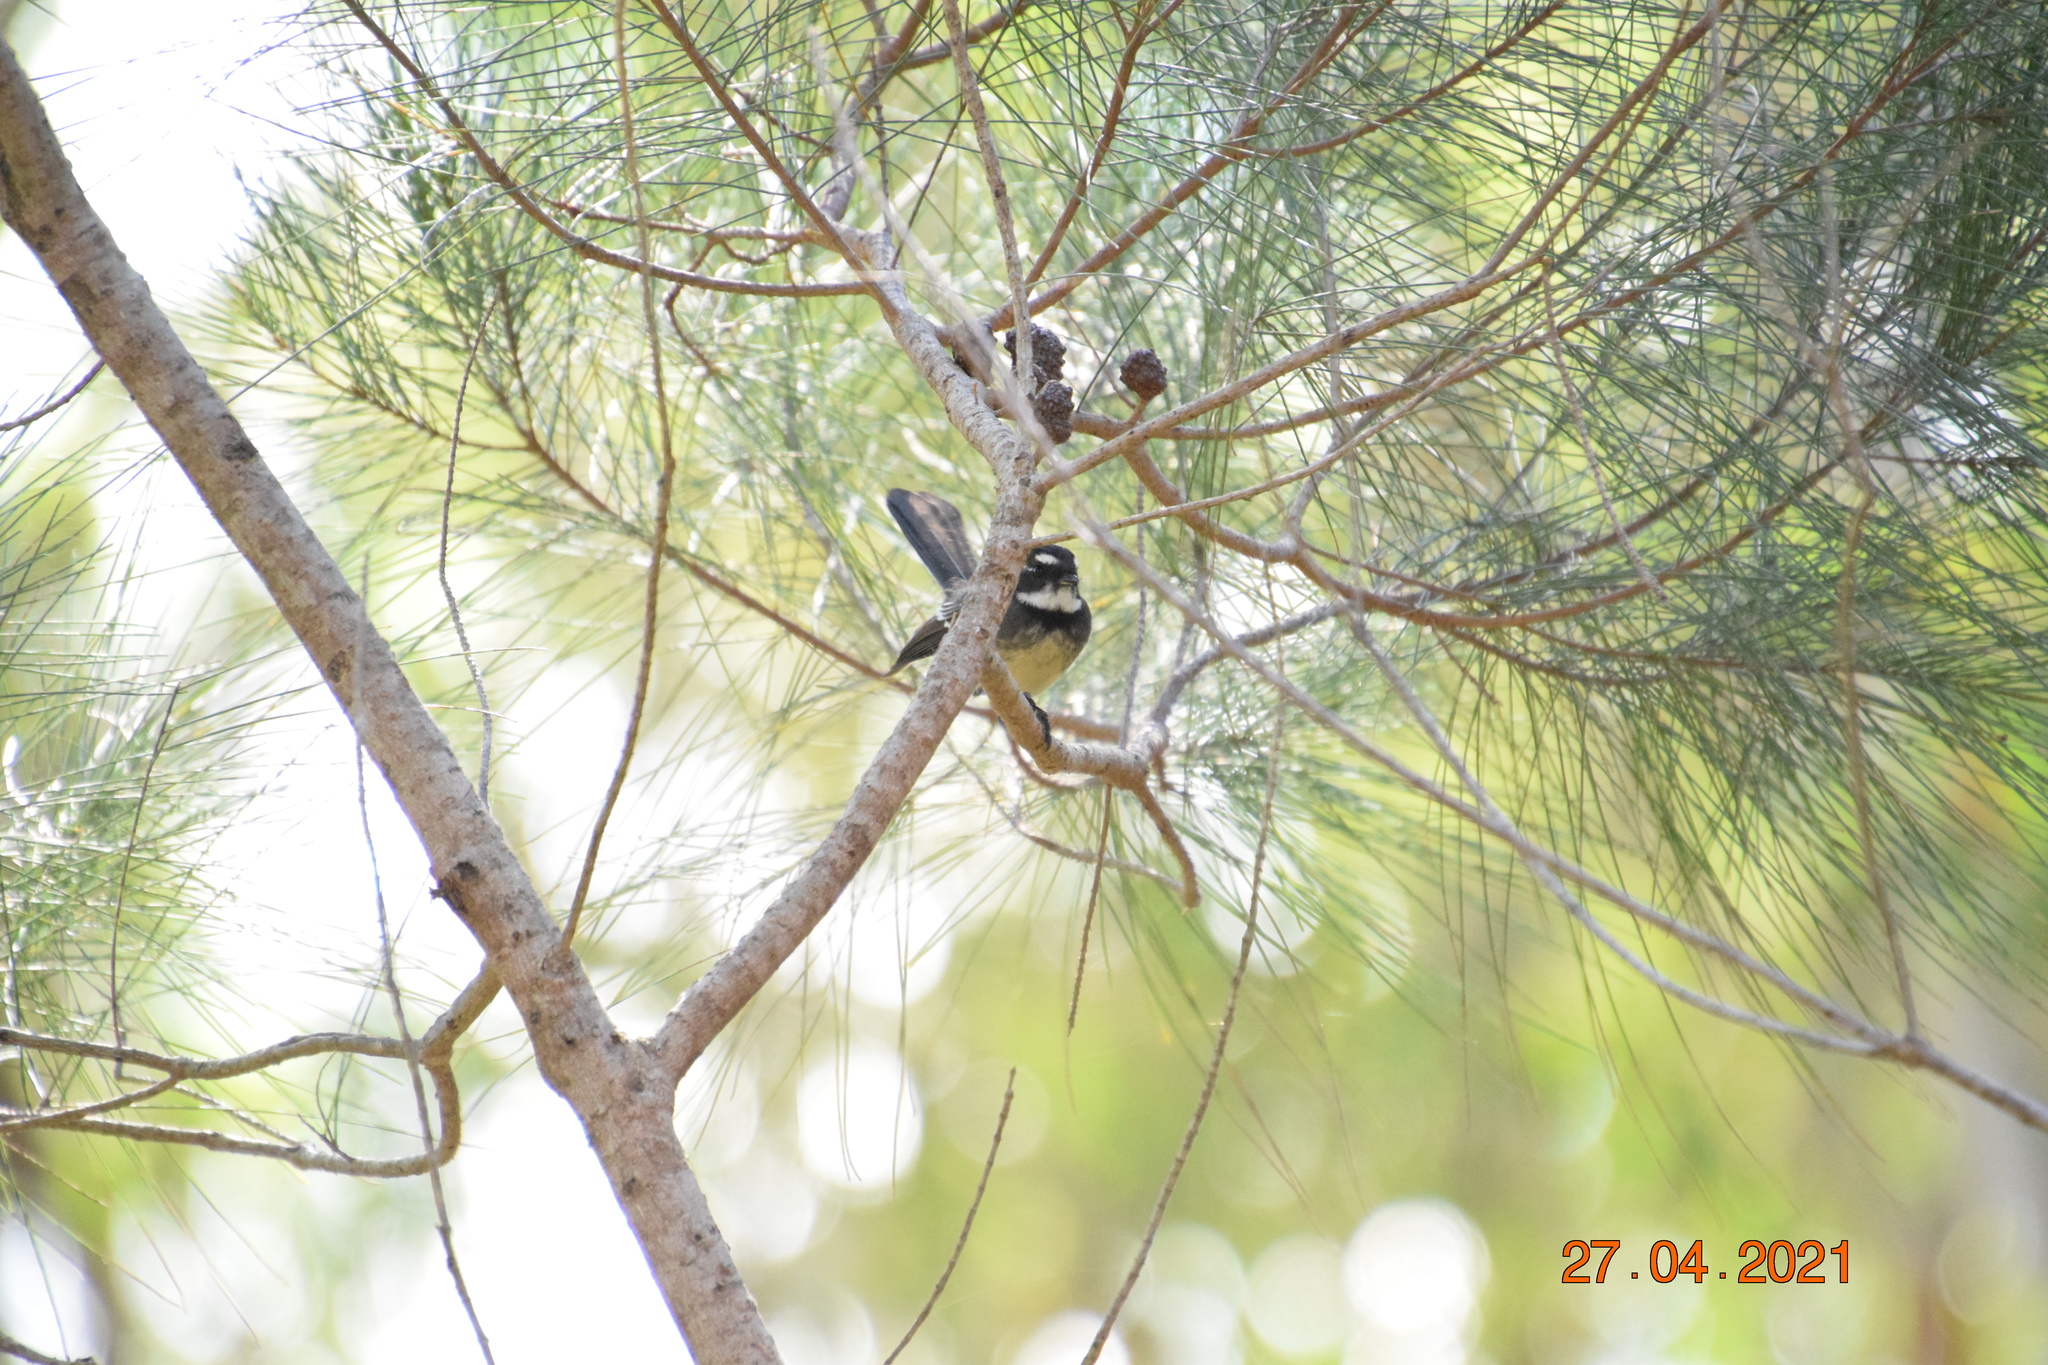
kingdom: Animalia
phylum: Chordata
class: Aves
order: Passeriformes
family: Rhipiduridae
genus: Rhipidura
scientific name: Rhipidura albiscapa
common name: Grey fantail
